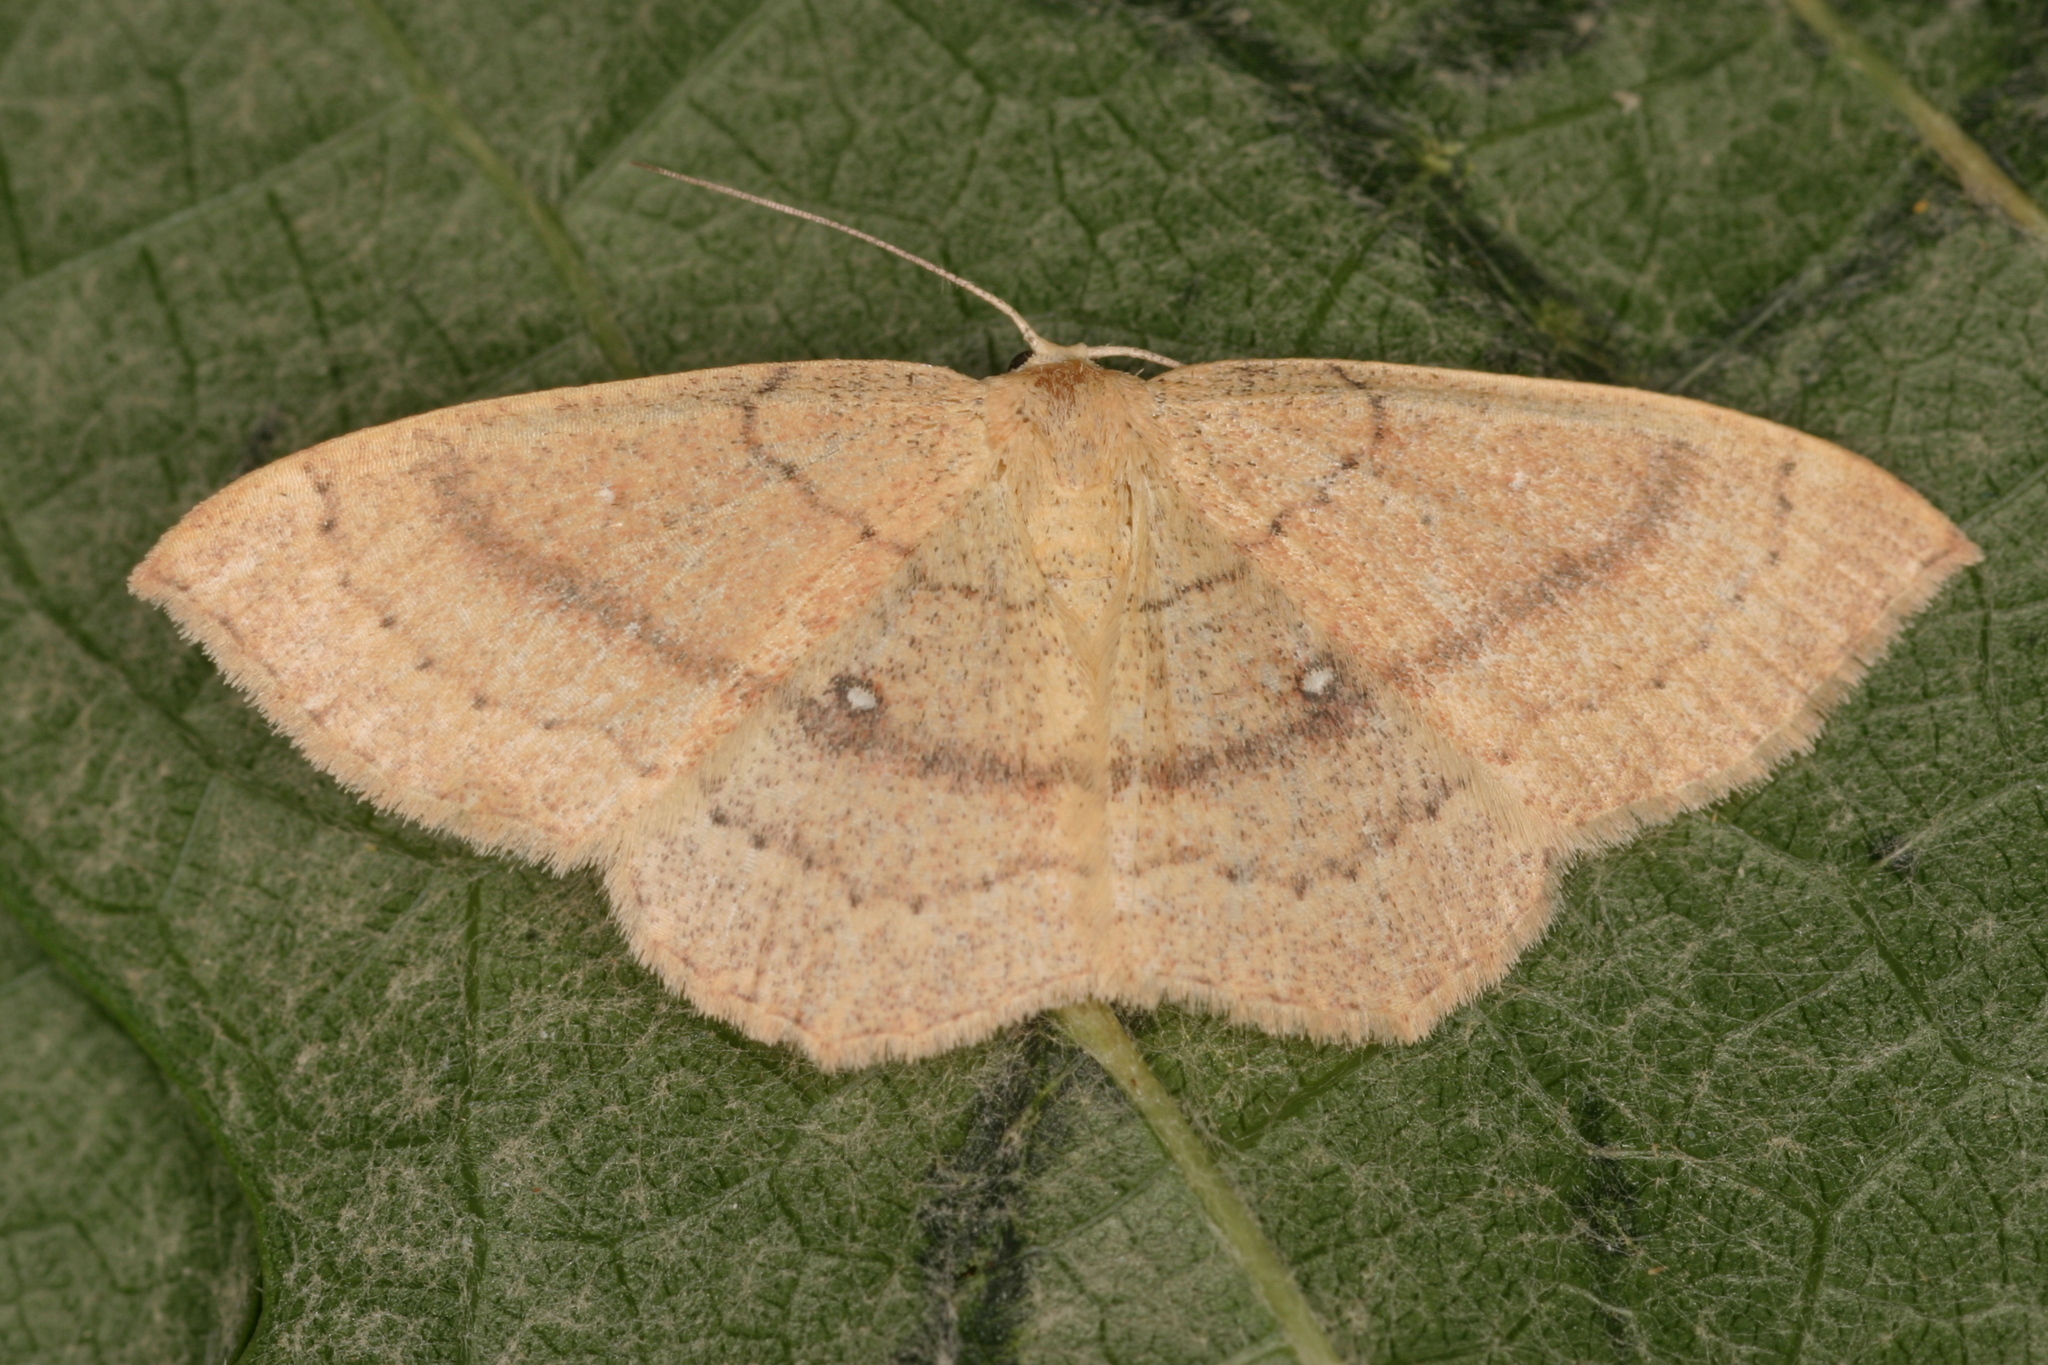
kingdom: Animalia
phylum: Arthropoda
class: Insecta
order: Lepidoptera
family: Geometridae
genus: Cyclophora
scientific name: Cyclophora linearia
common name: Clay triple-lines
